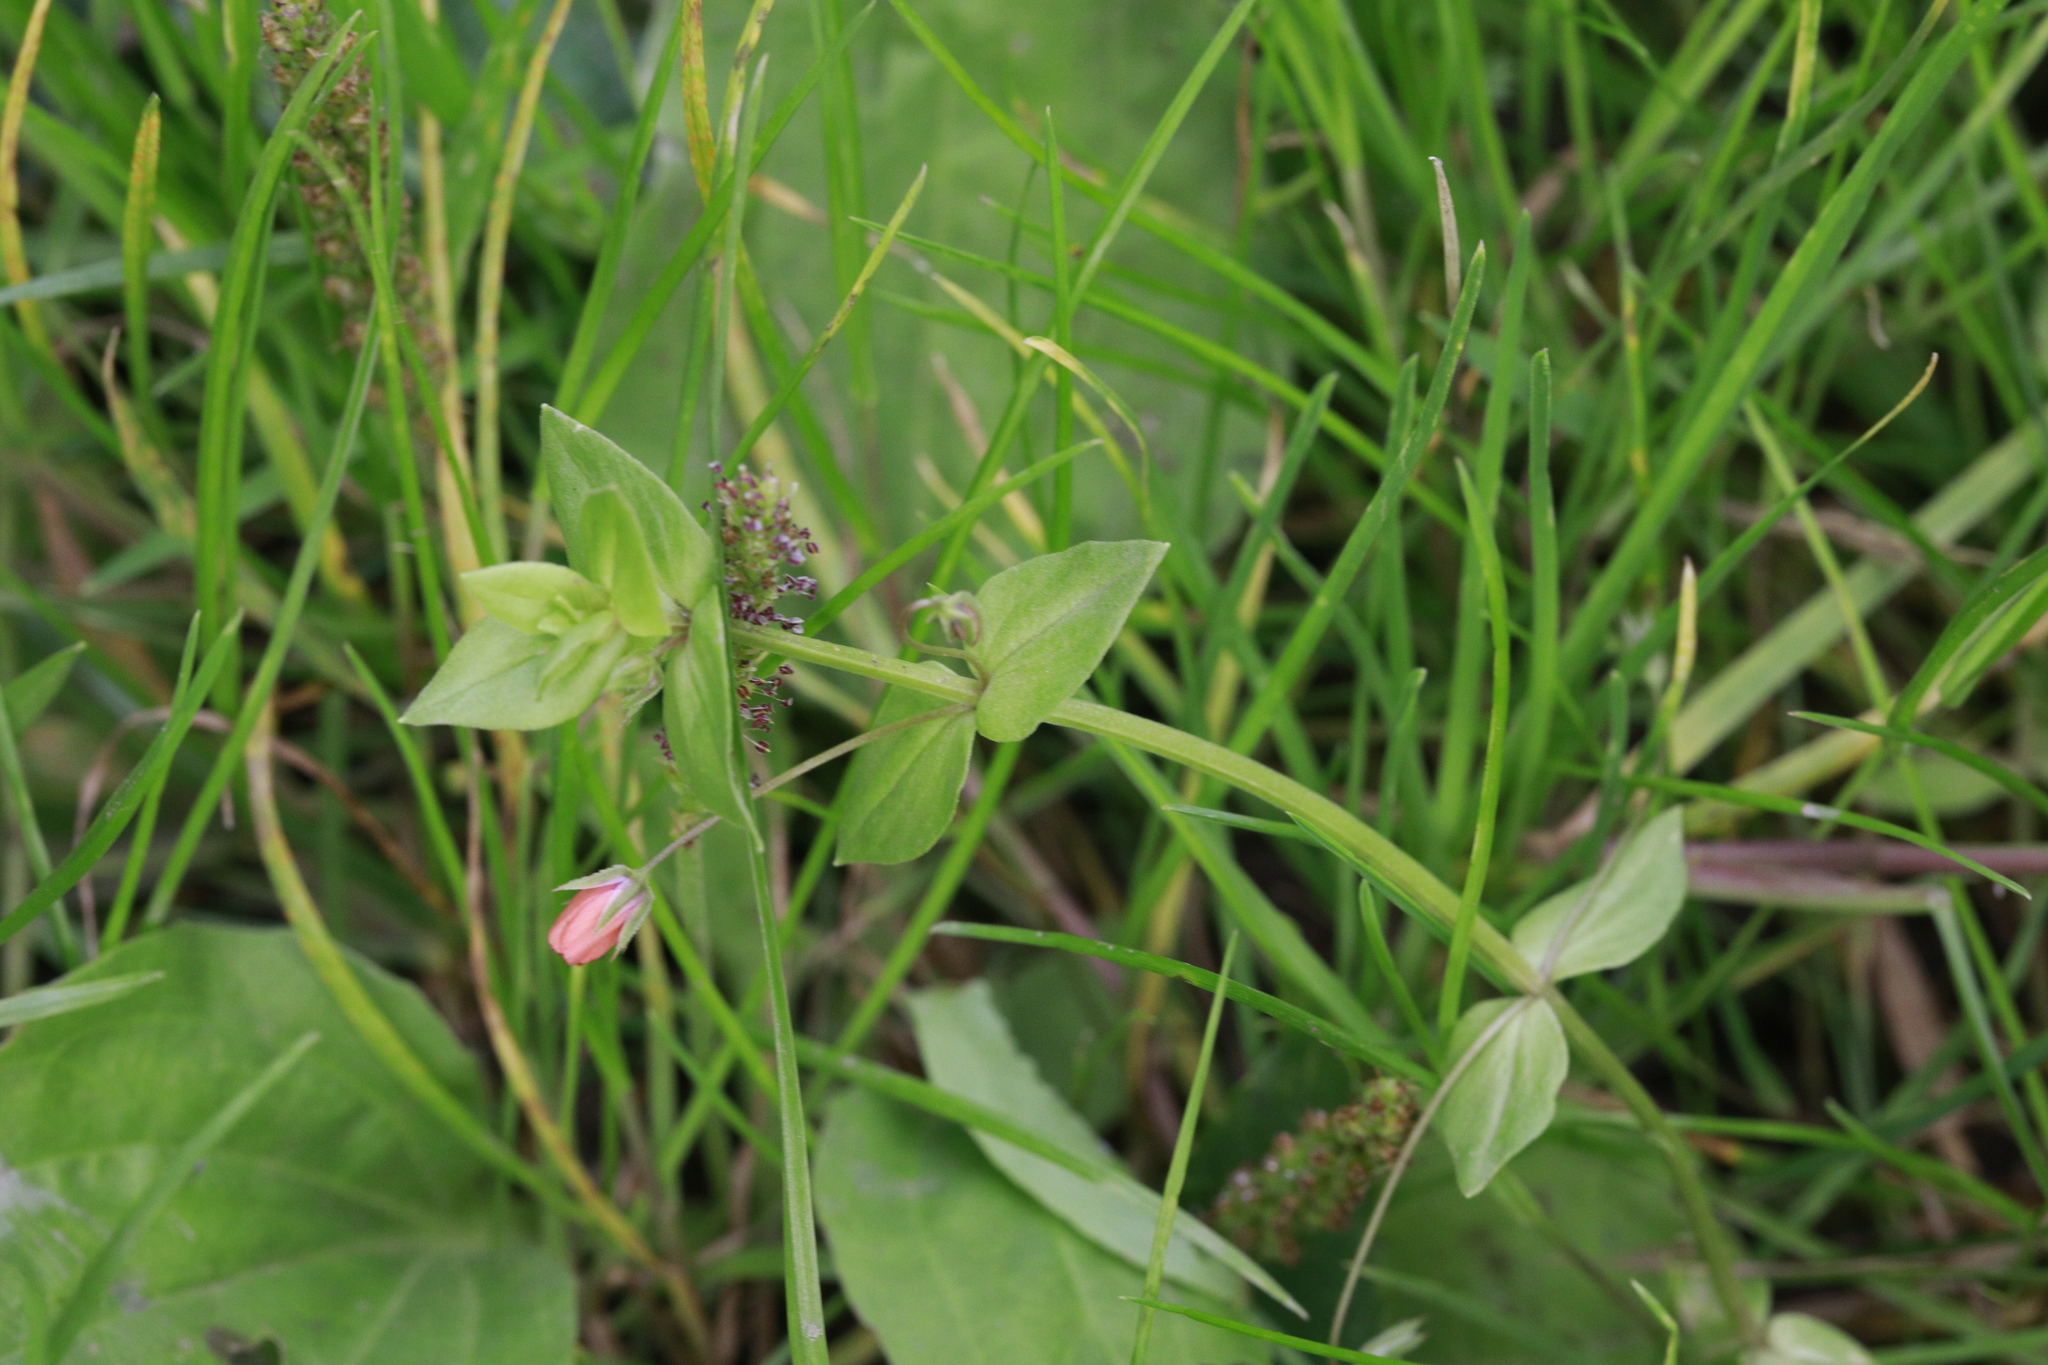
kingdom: Plantae
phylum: Tracheophyta
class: Magnoliopsida
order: Ericales
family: Primulaceae
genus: Lysimachia
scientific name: Lysimachia arvensis
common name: Scarlet pimpernel
